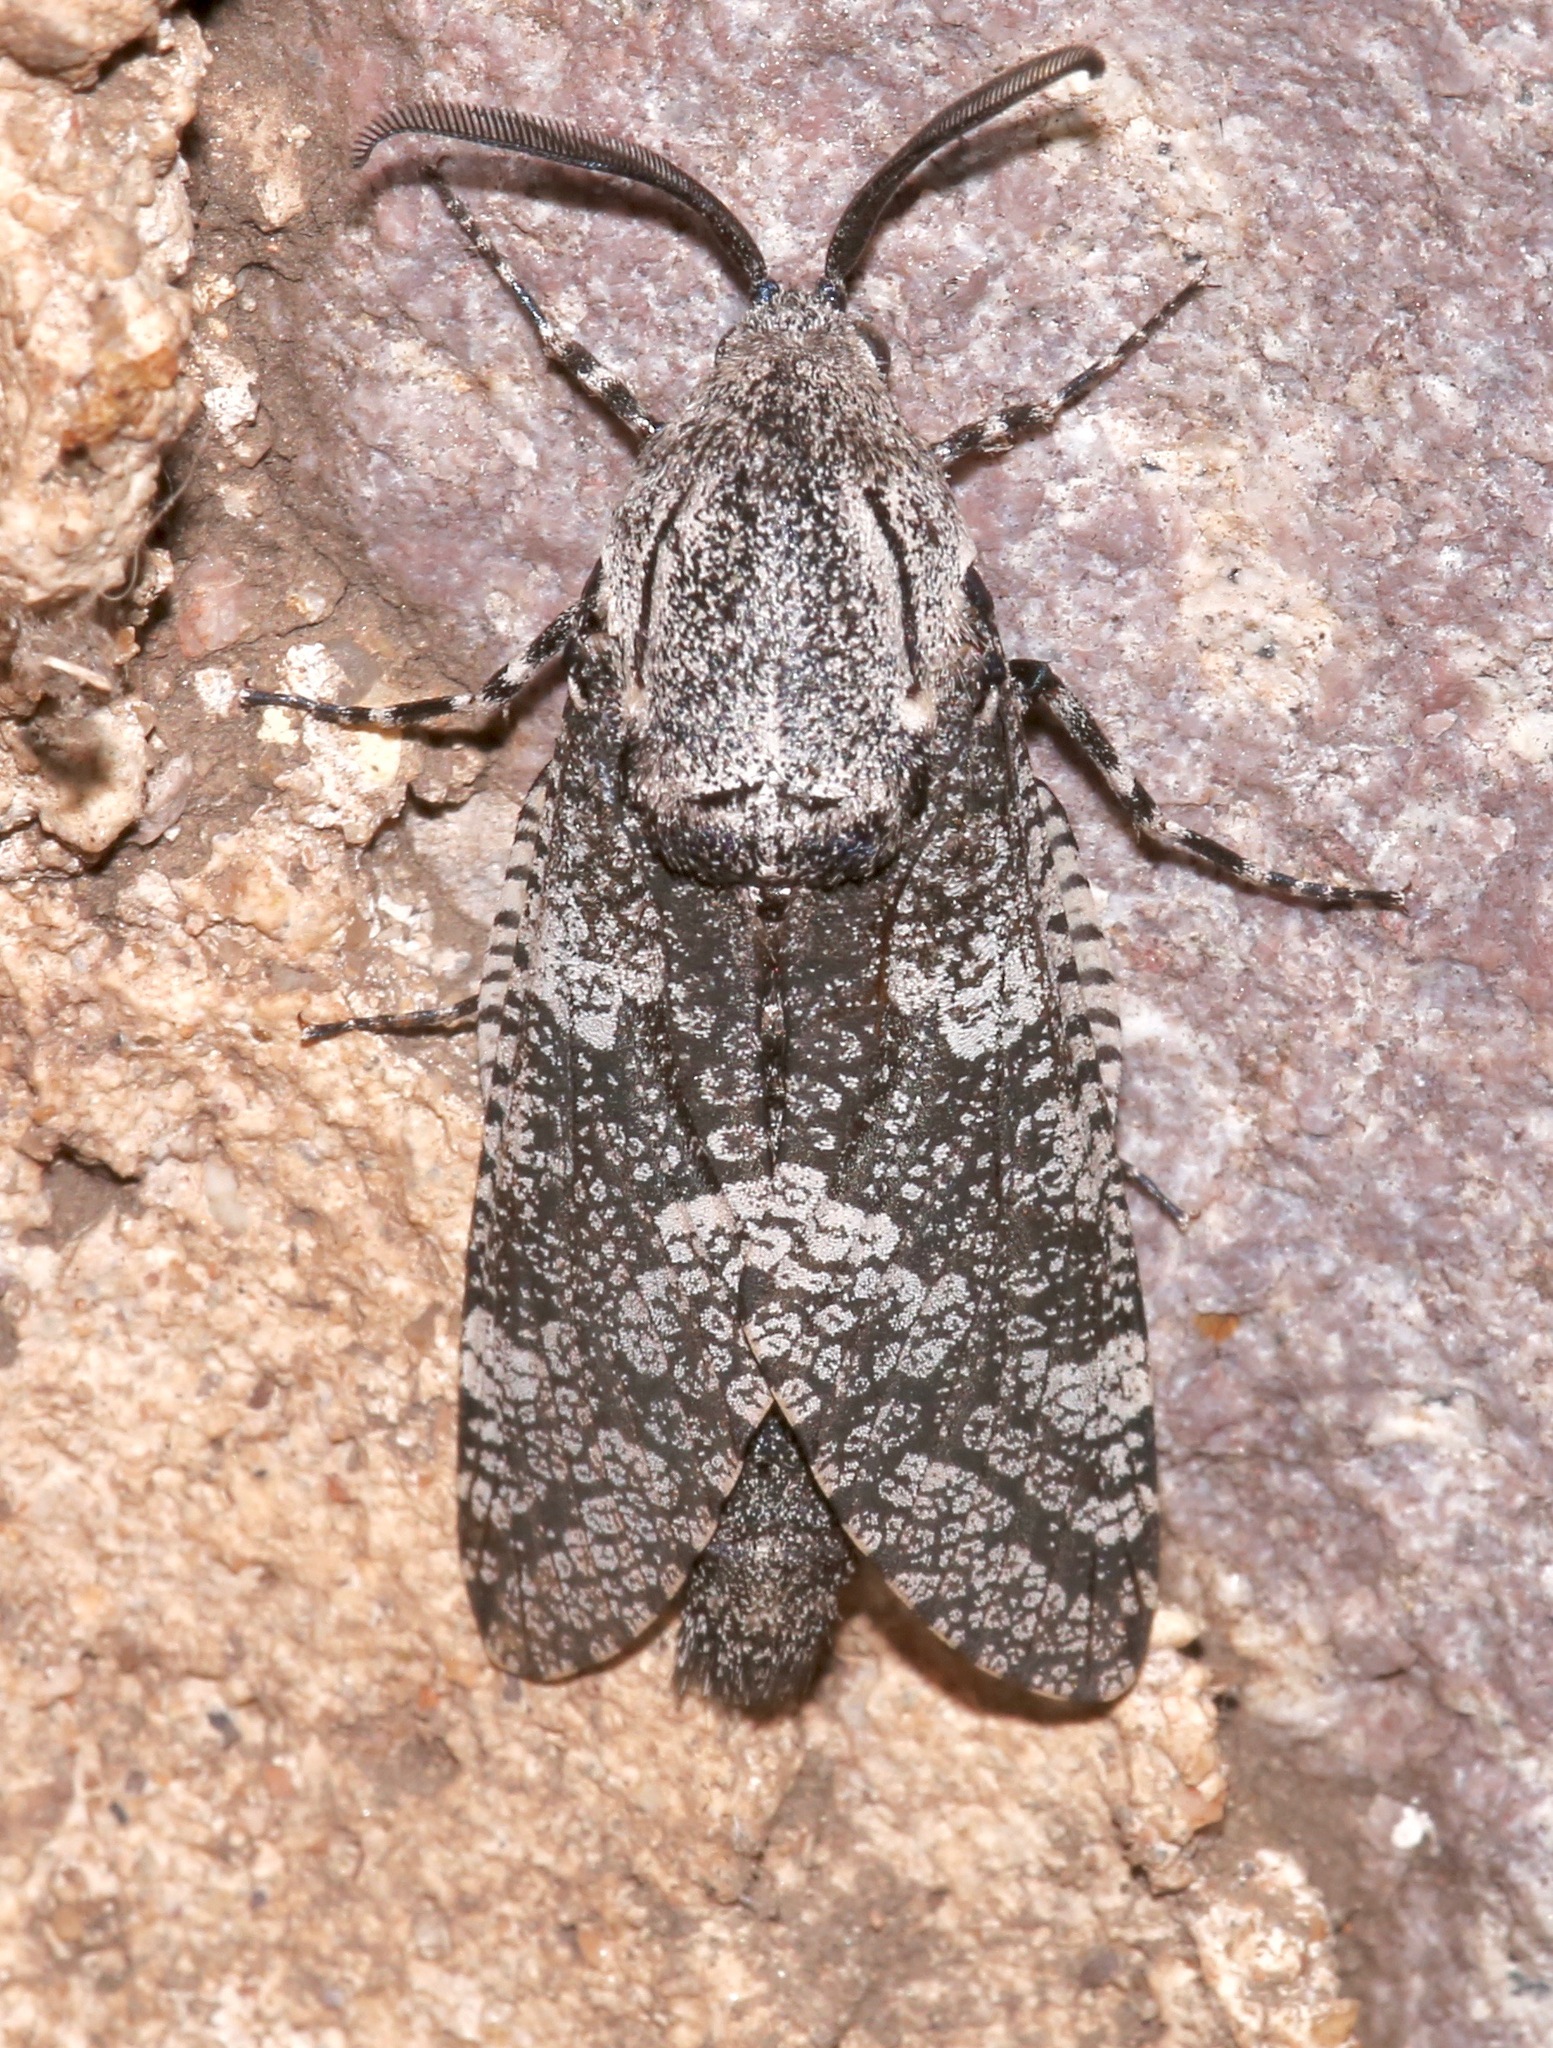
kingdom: Animalia
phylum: Arthropoda
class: Insecta
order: Lepidoptera
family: Cossidae
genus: Prionoxystus
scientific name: Prionoxystus robiniae
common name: Carpenterworm
